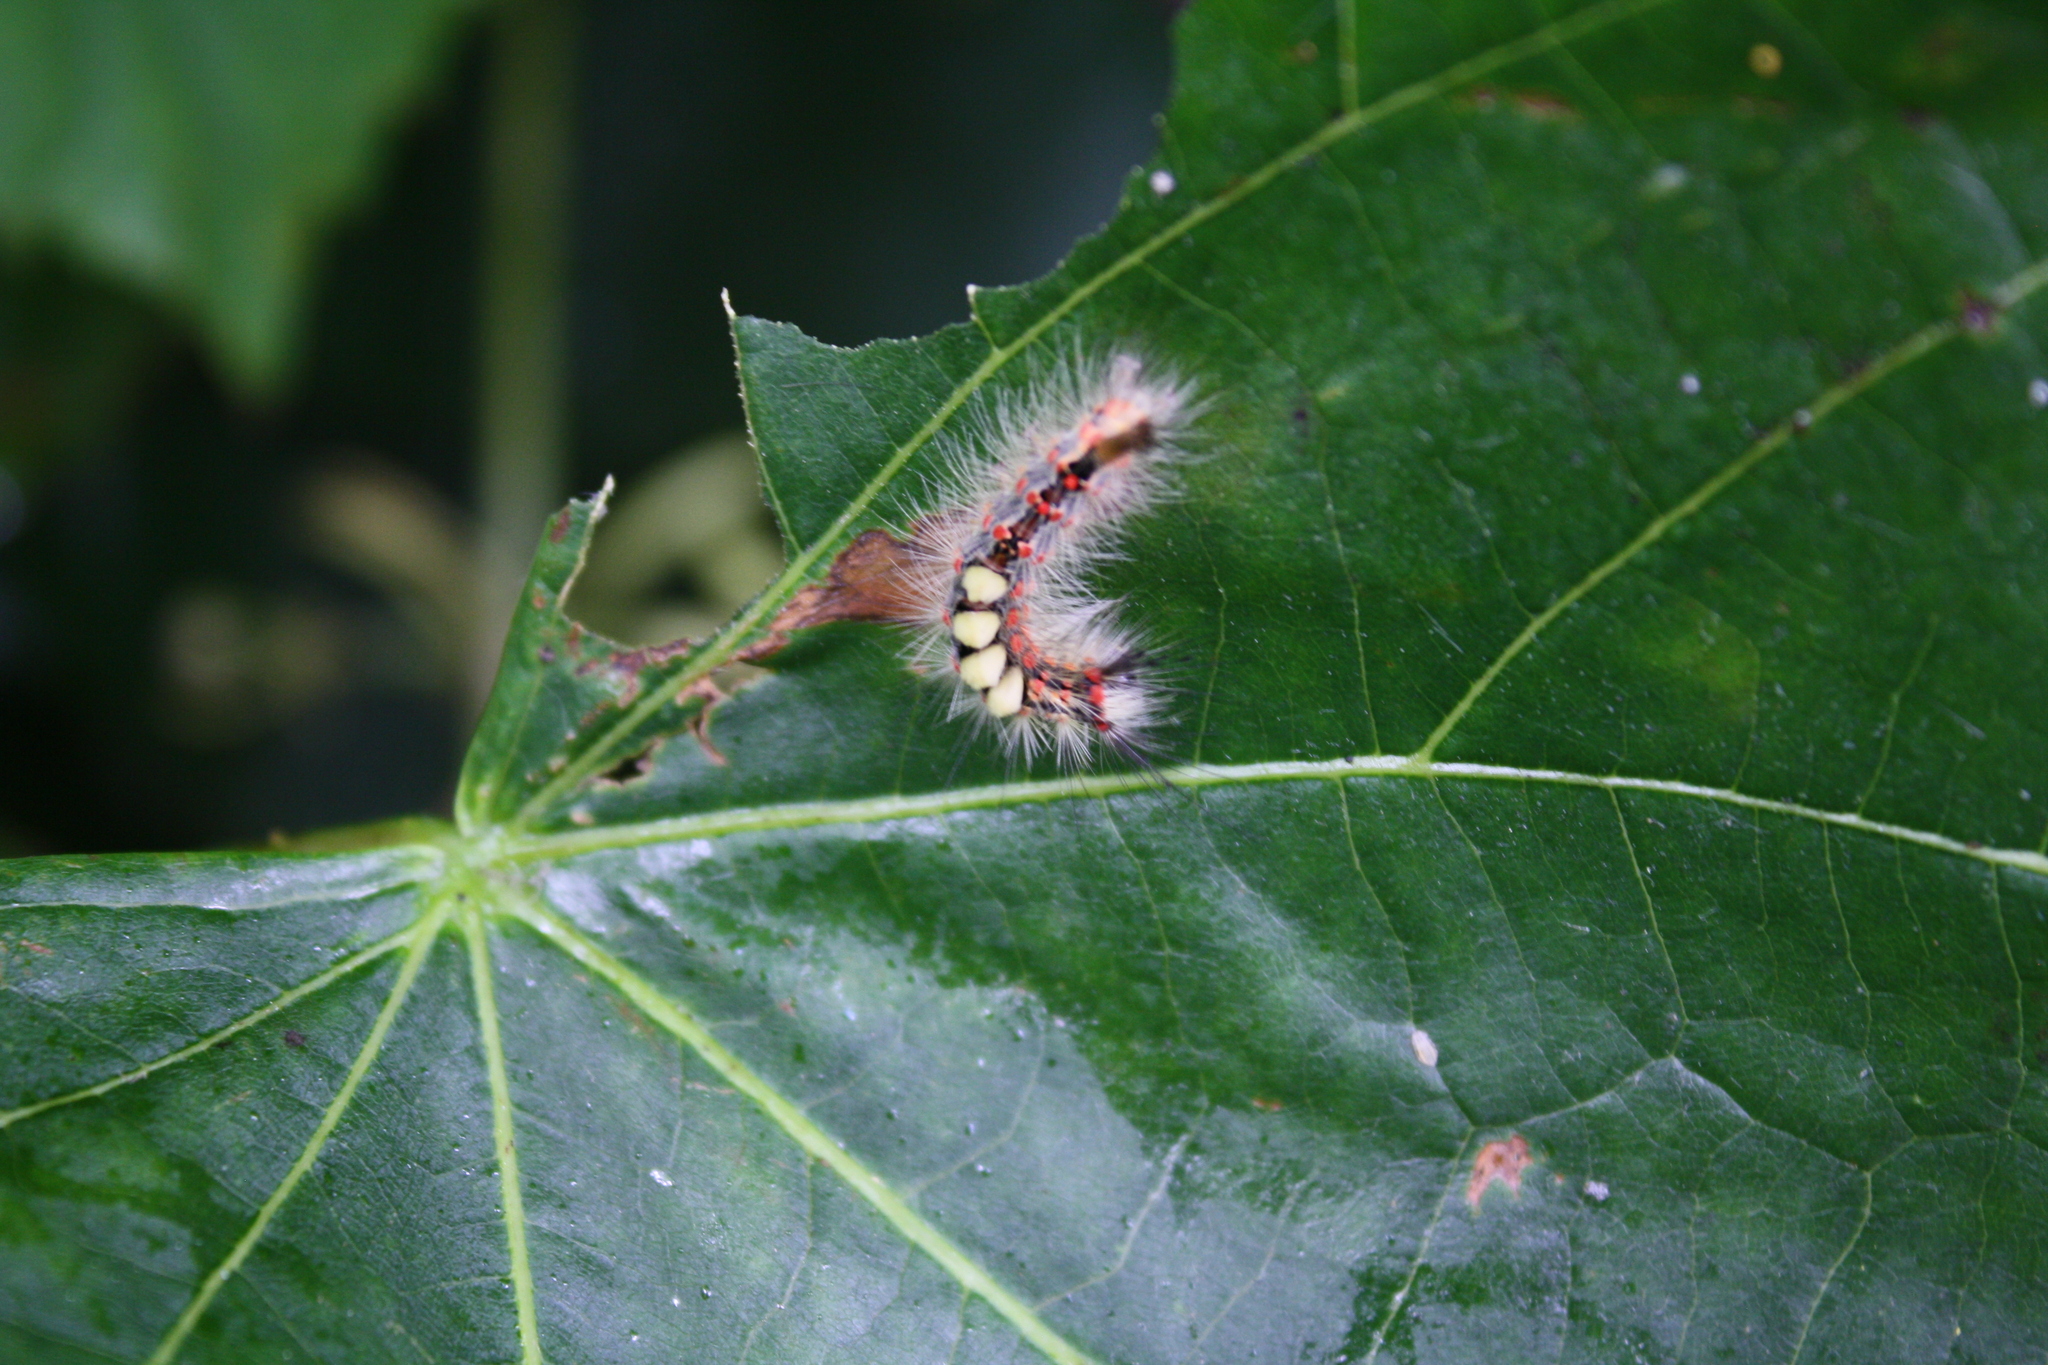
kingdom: Animalia
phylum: Arthropoda
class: Insecta
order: Lepidoptera
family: Erebidae
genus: Orgyia
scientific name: Orgyia antiqua
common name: Vapourer
